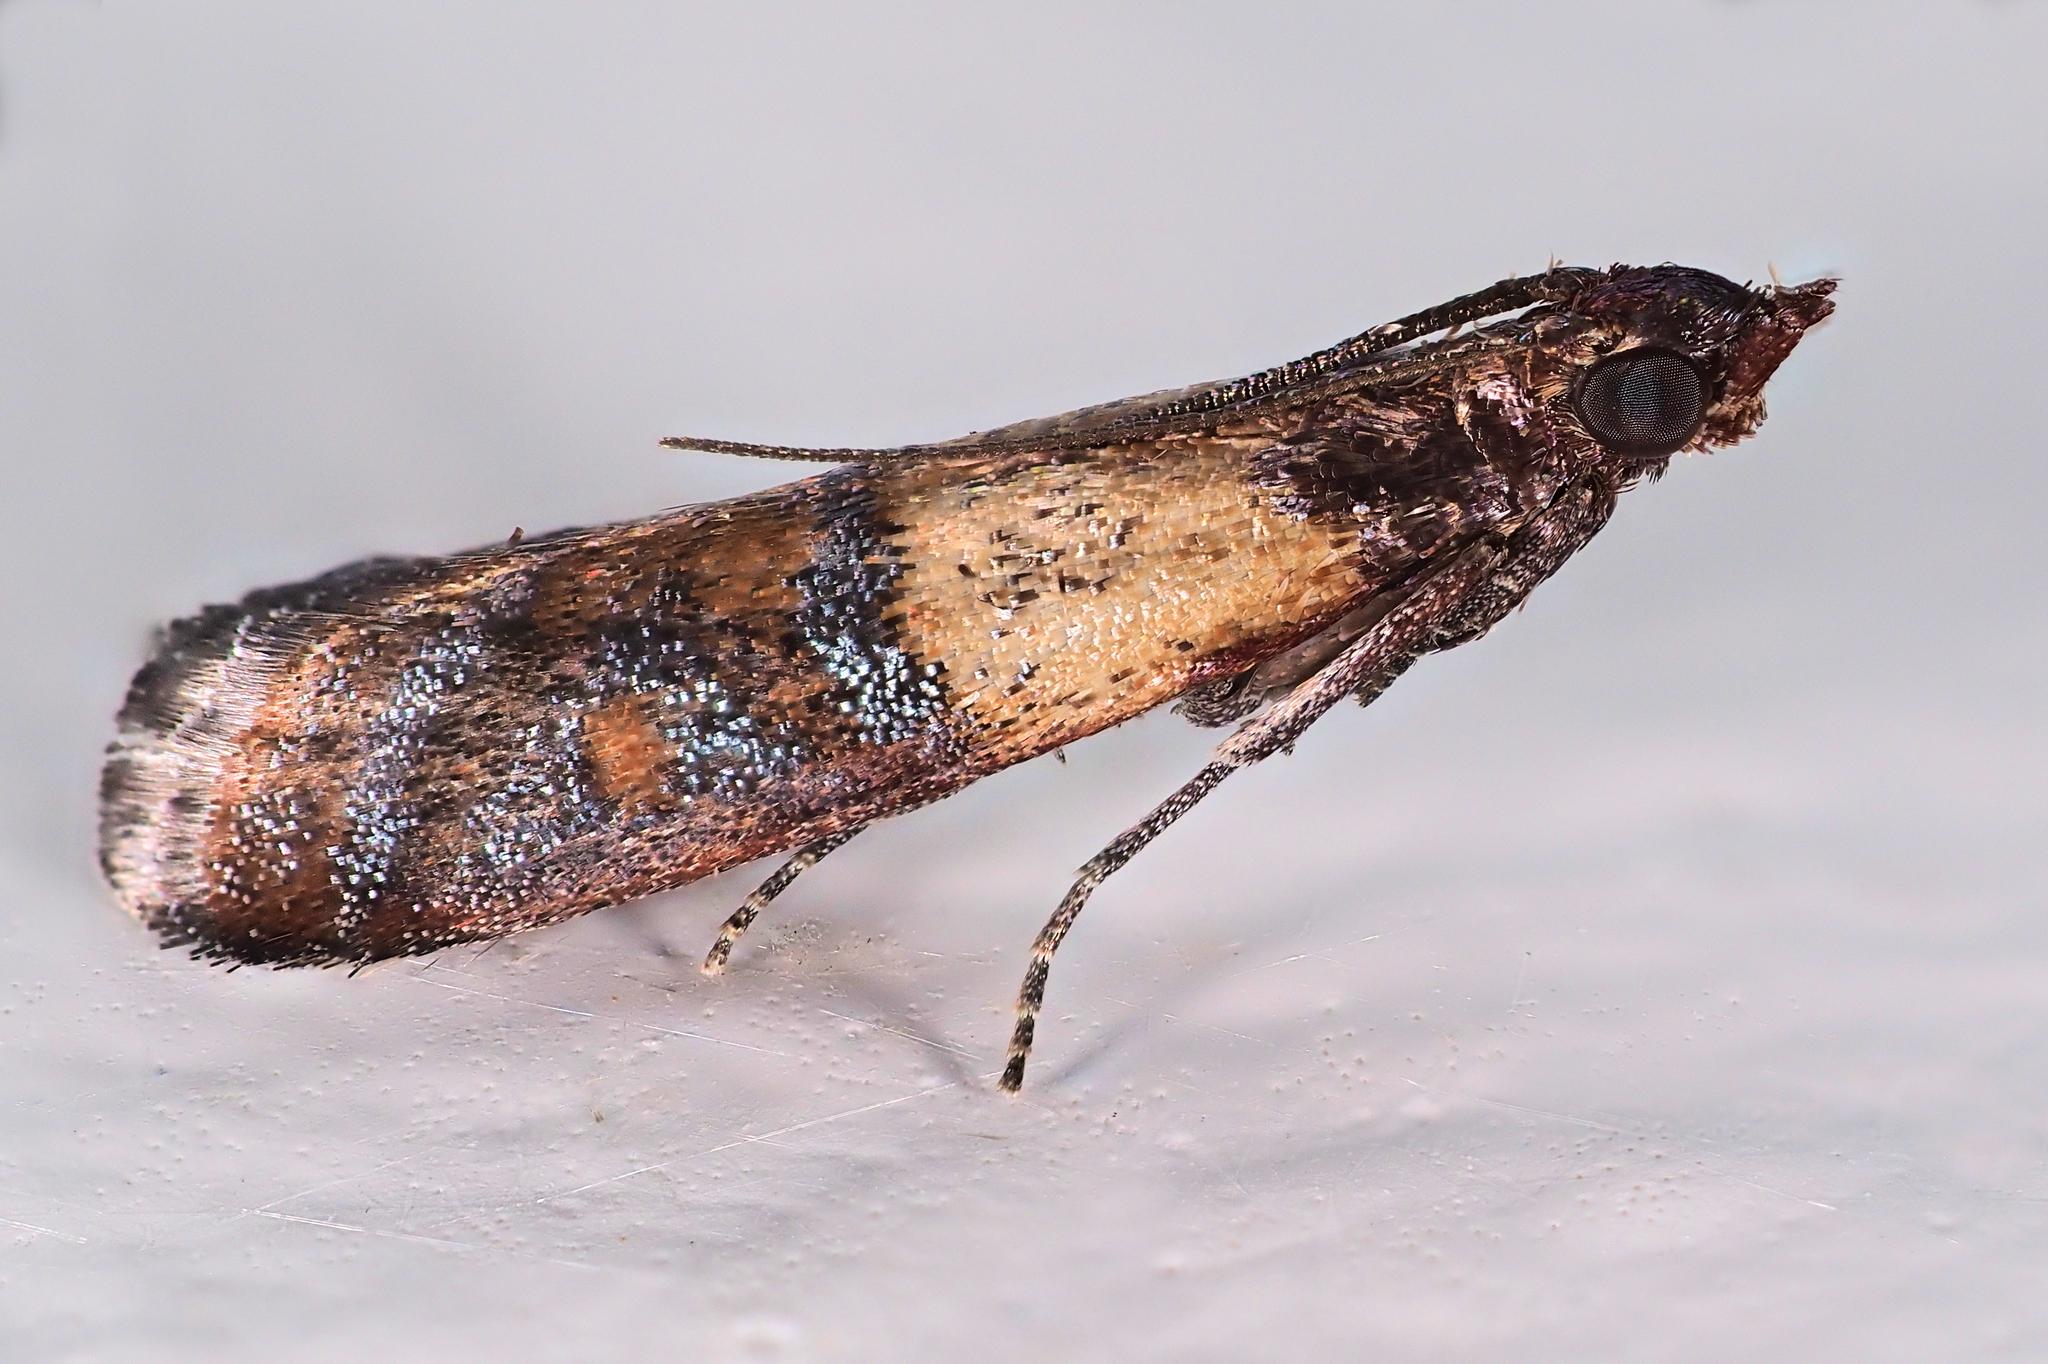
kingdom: Animalia
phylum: Arthropoda
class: Insecta
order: Lepidoptera
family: Pyralidae
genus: Plodia
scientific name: Plodia interpunctella
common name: Indian meal moth
